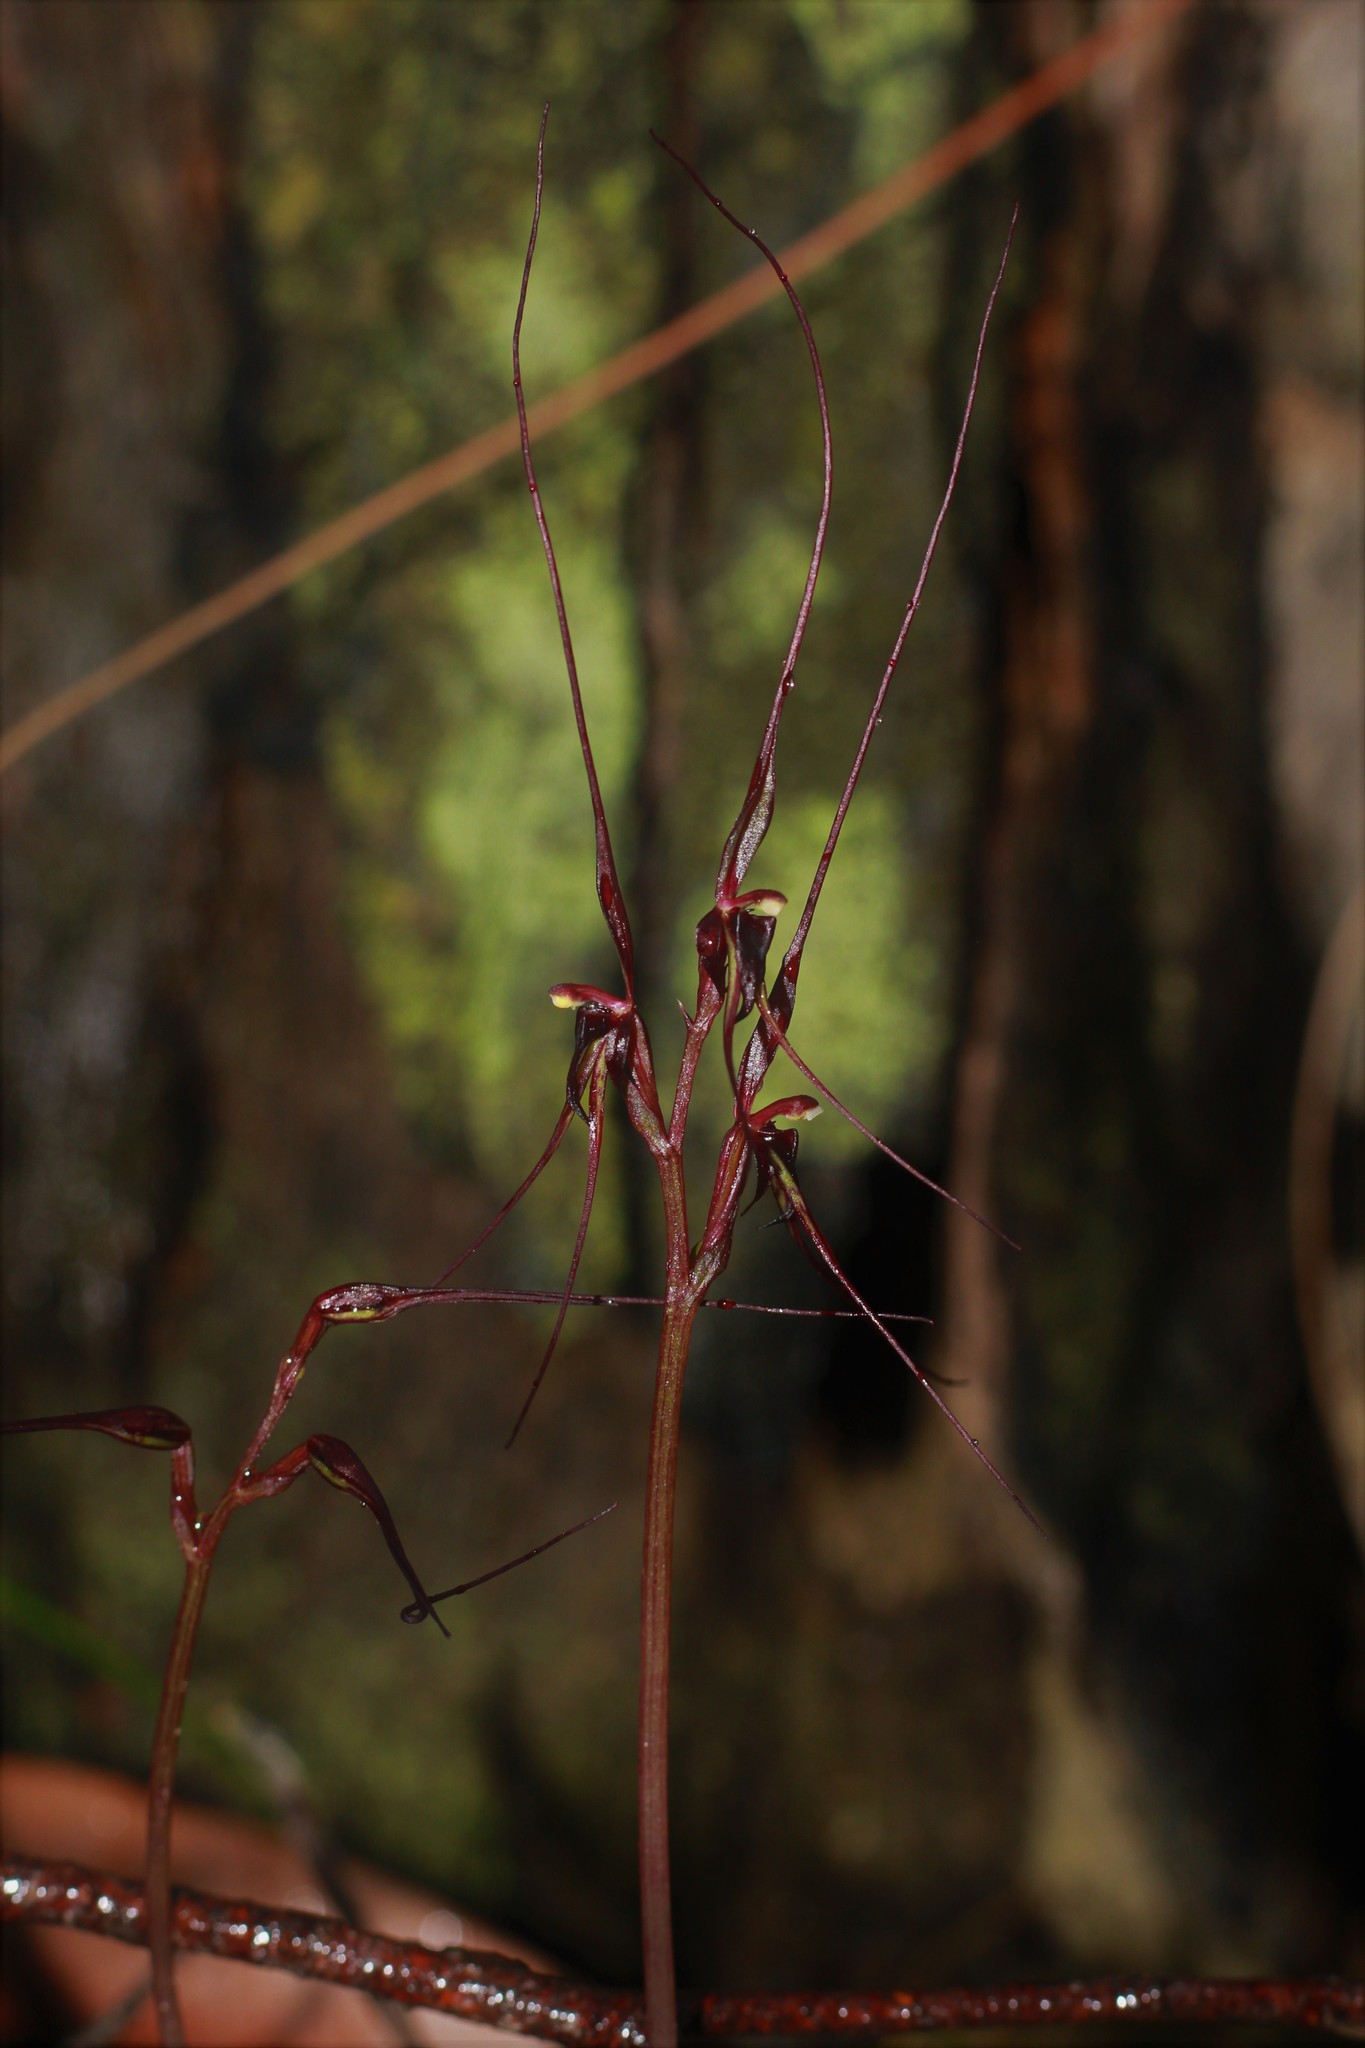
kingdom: Plantae
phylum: Tracheophyta
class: Liliopsida
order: Asparagales
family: Orchidaceae
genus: Acianthus
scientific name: Acianthus caudatus
